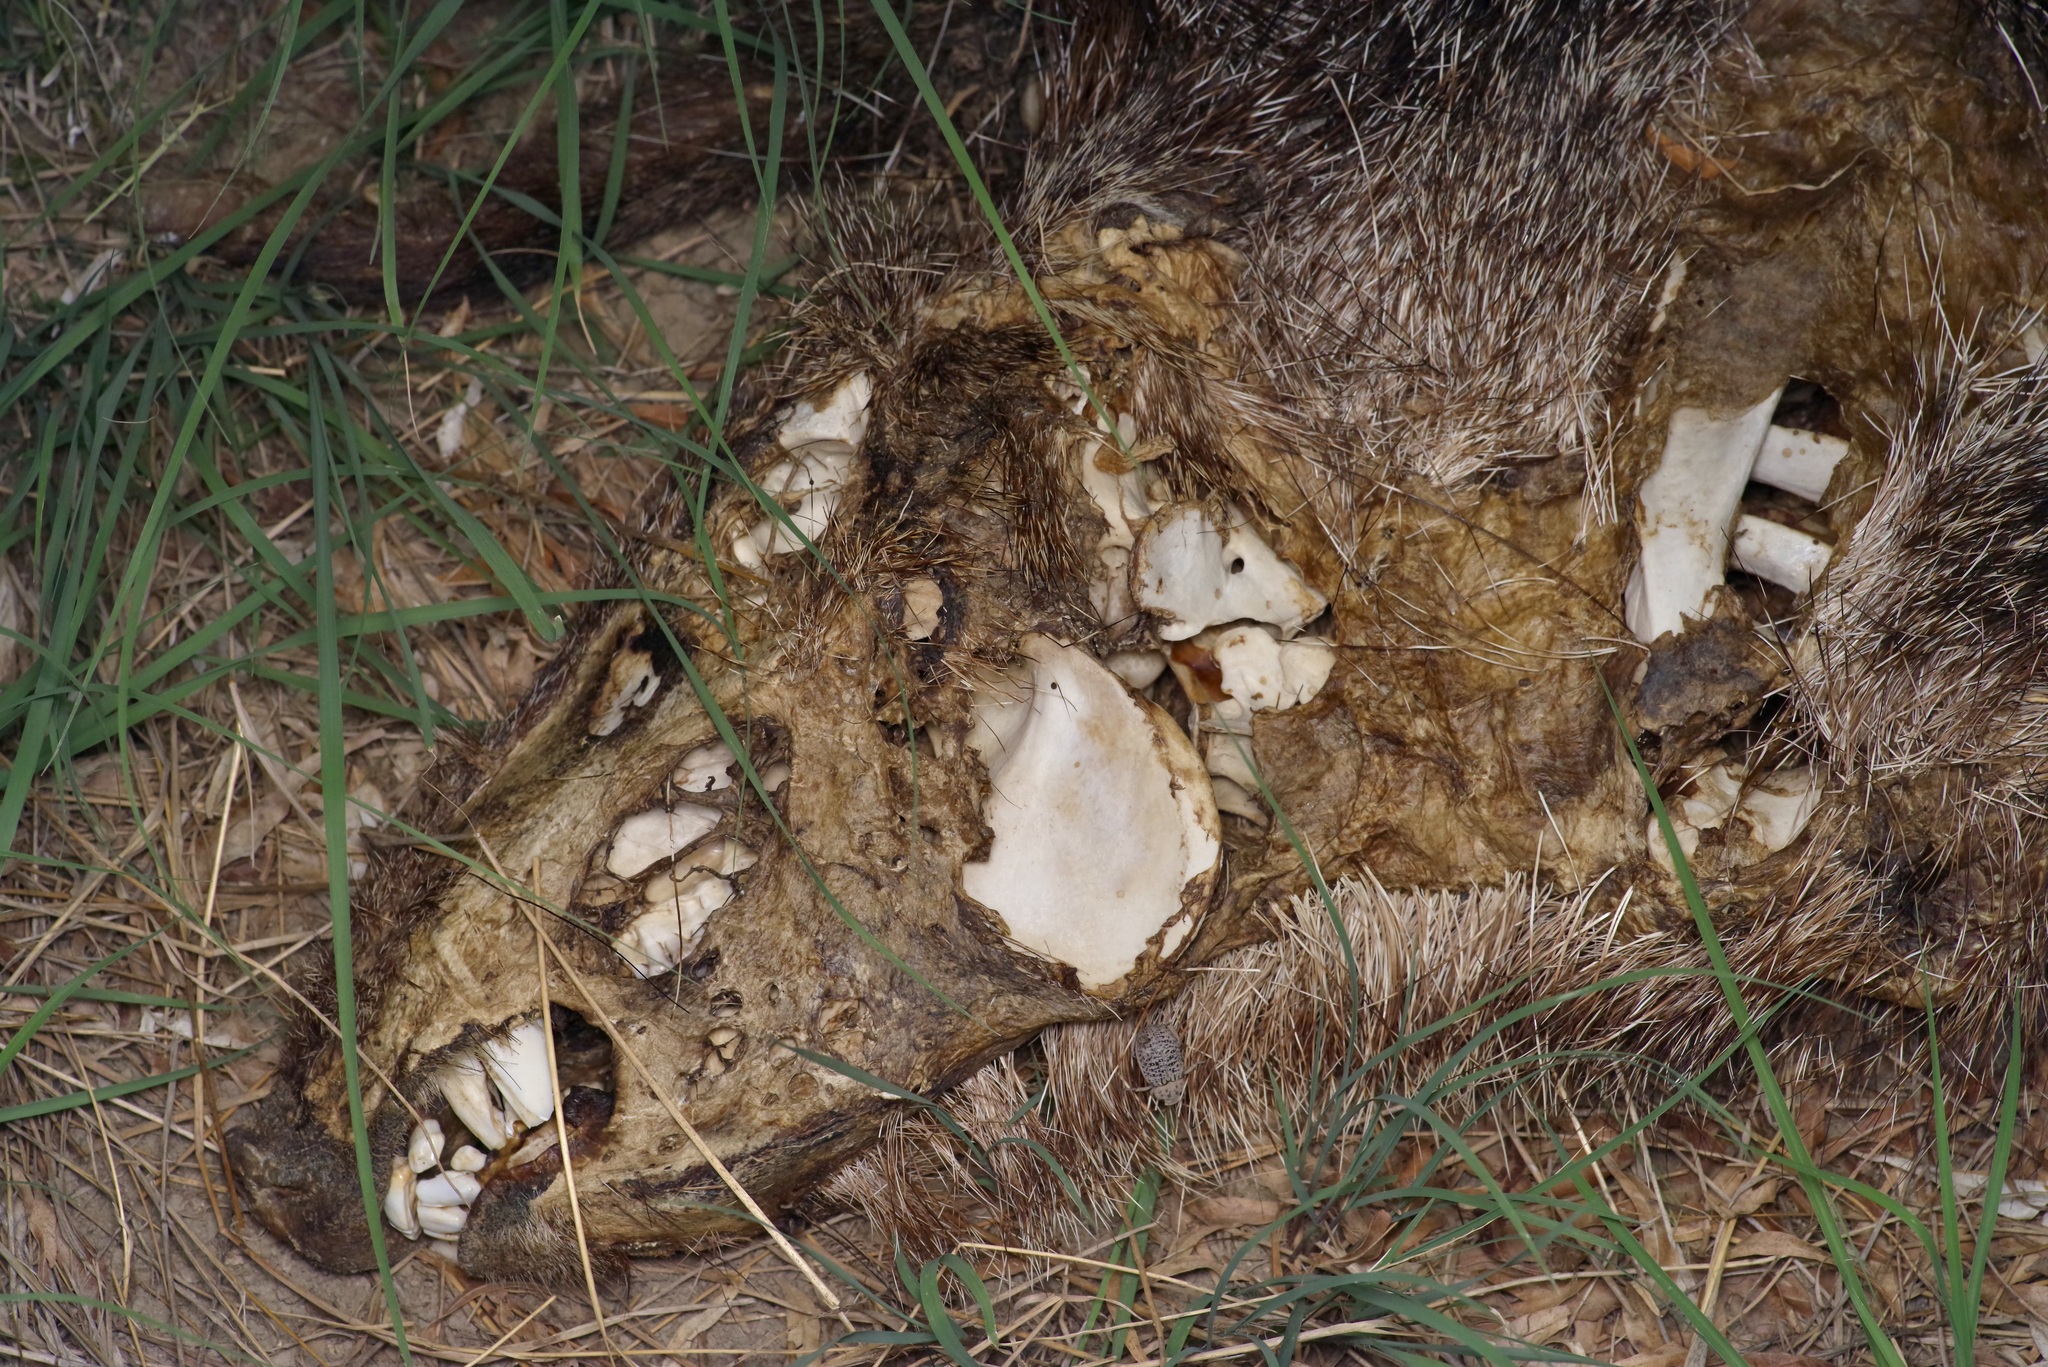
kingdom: Animalia
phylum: Chordata
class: Mammalia
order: Artiodactyla
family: Tayassuidae
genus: Pecari
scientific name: Pecari tajacu
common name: Collared peccary
